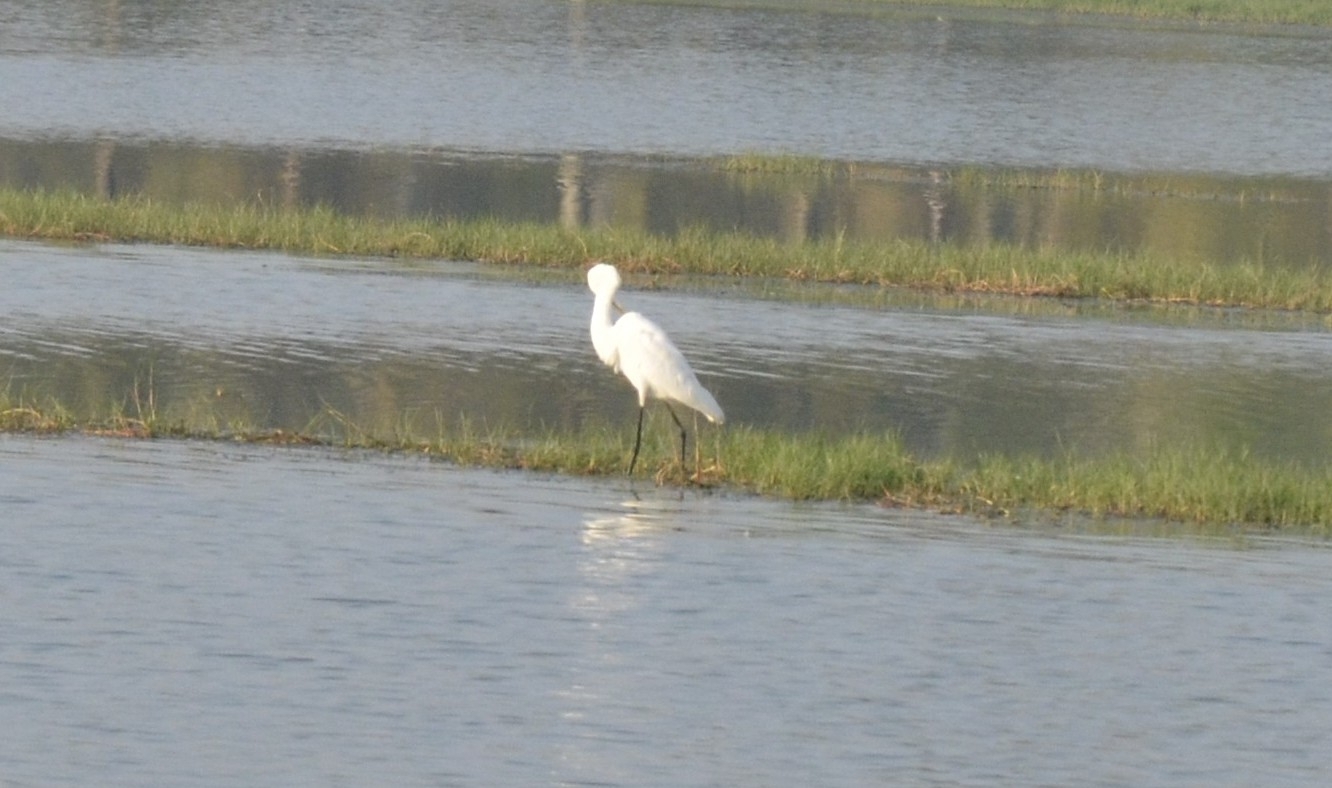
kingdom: Animalia
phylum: Chordata
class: Aves
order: Pelecaniformes
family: Ardeidae
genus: Ardea
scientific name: Ardea alba
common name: Great egret
